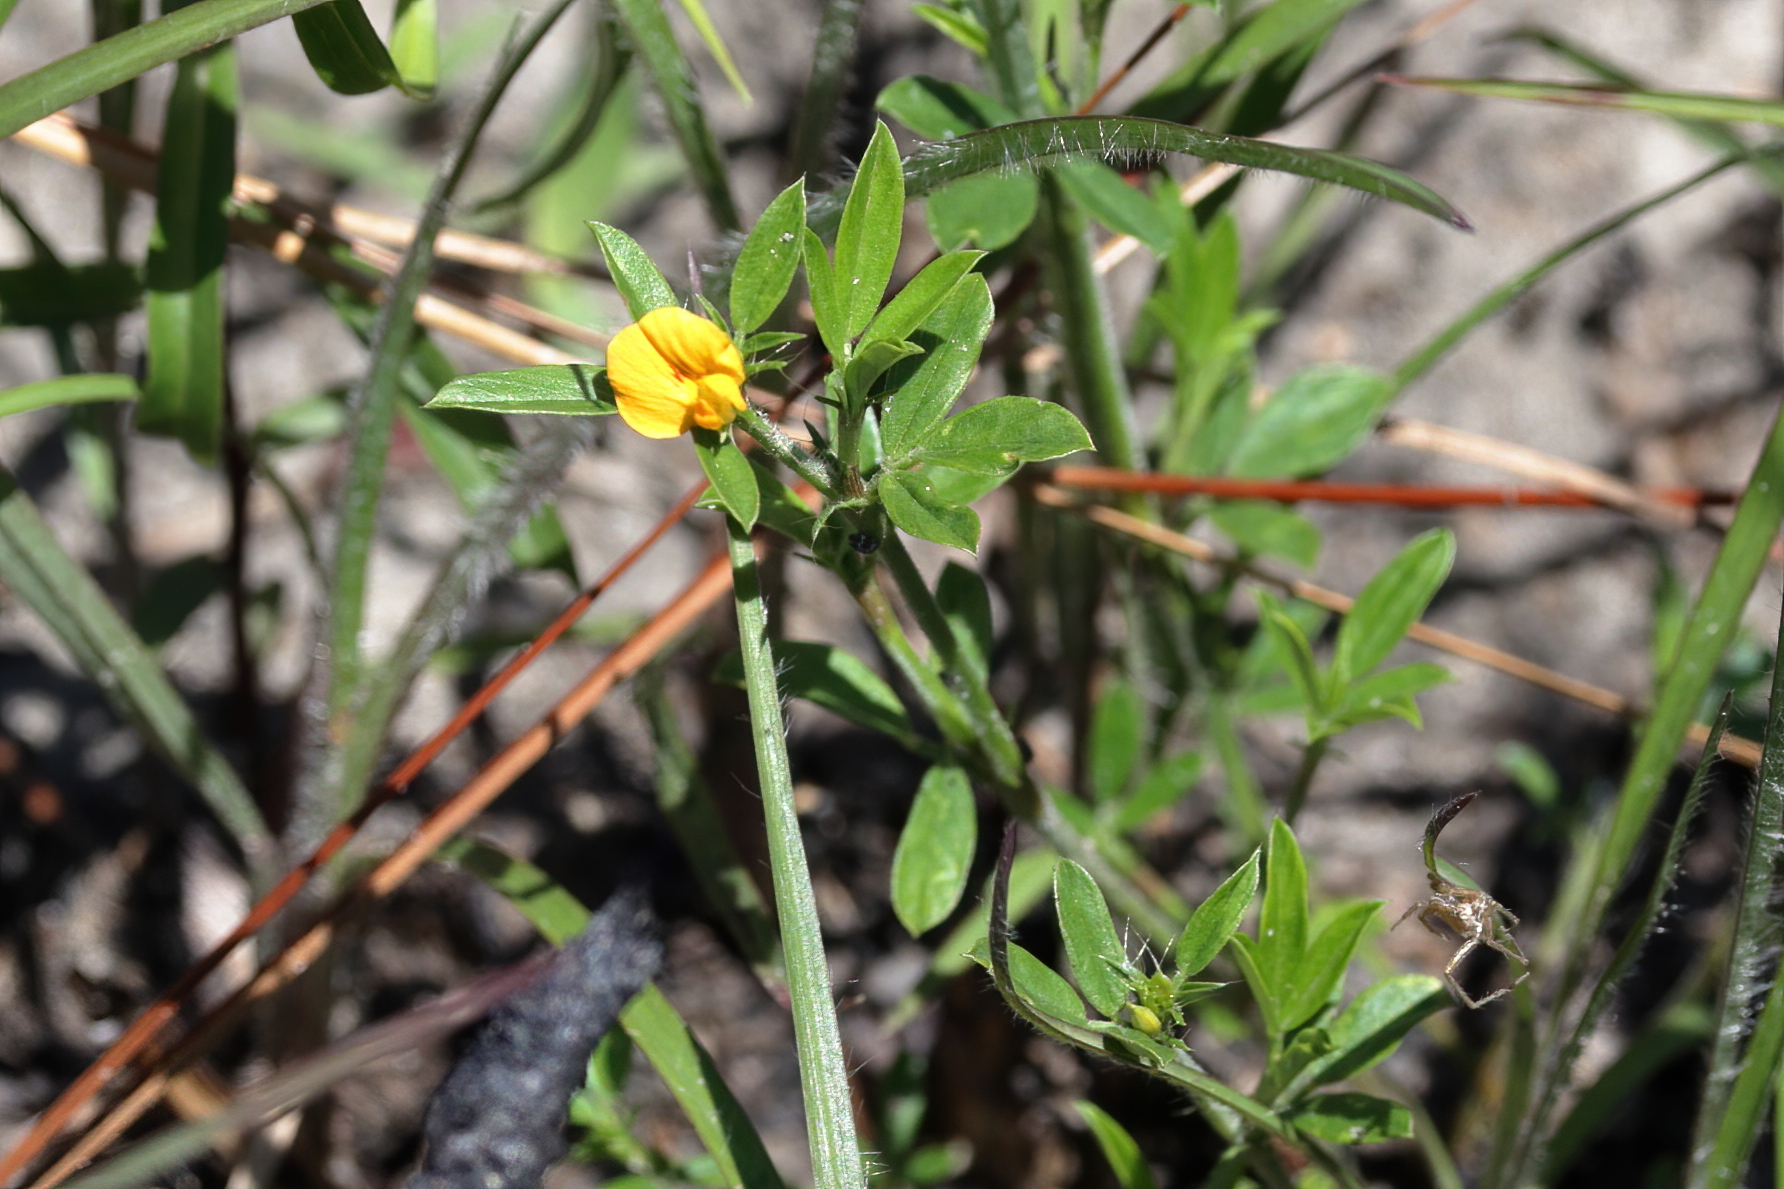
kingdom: Plantae
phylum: Tracheophyta
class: Magnoliopsida
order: Fabales
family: Fabaceae
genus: Stylosanthes
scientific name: Stylosanthes biflora
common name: Two-flower pencil-flower
